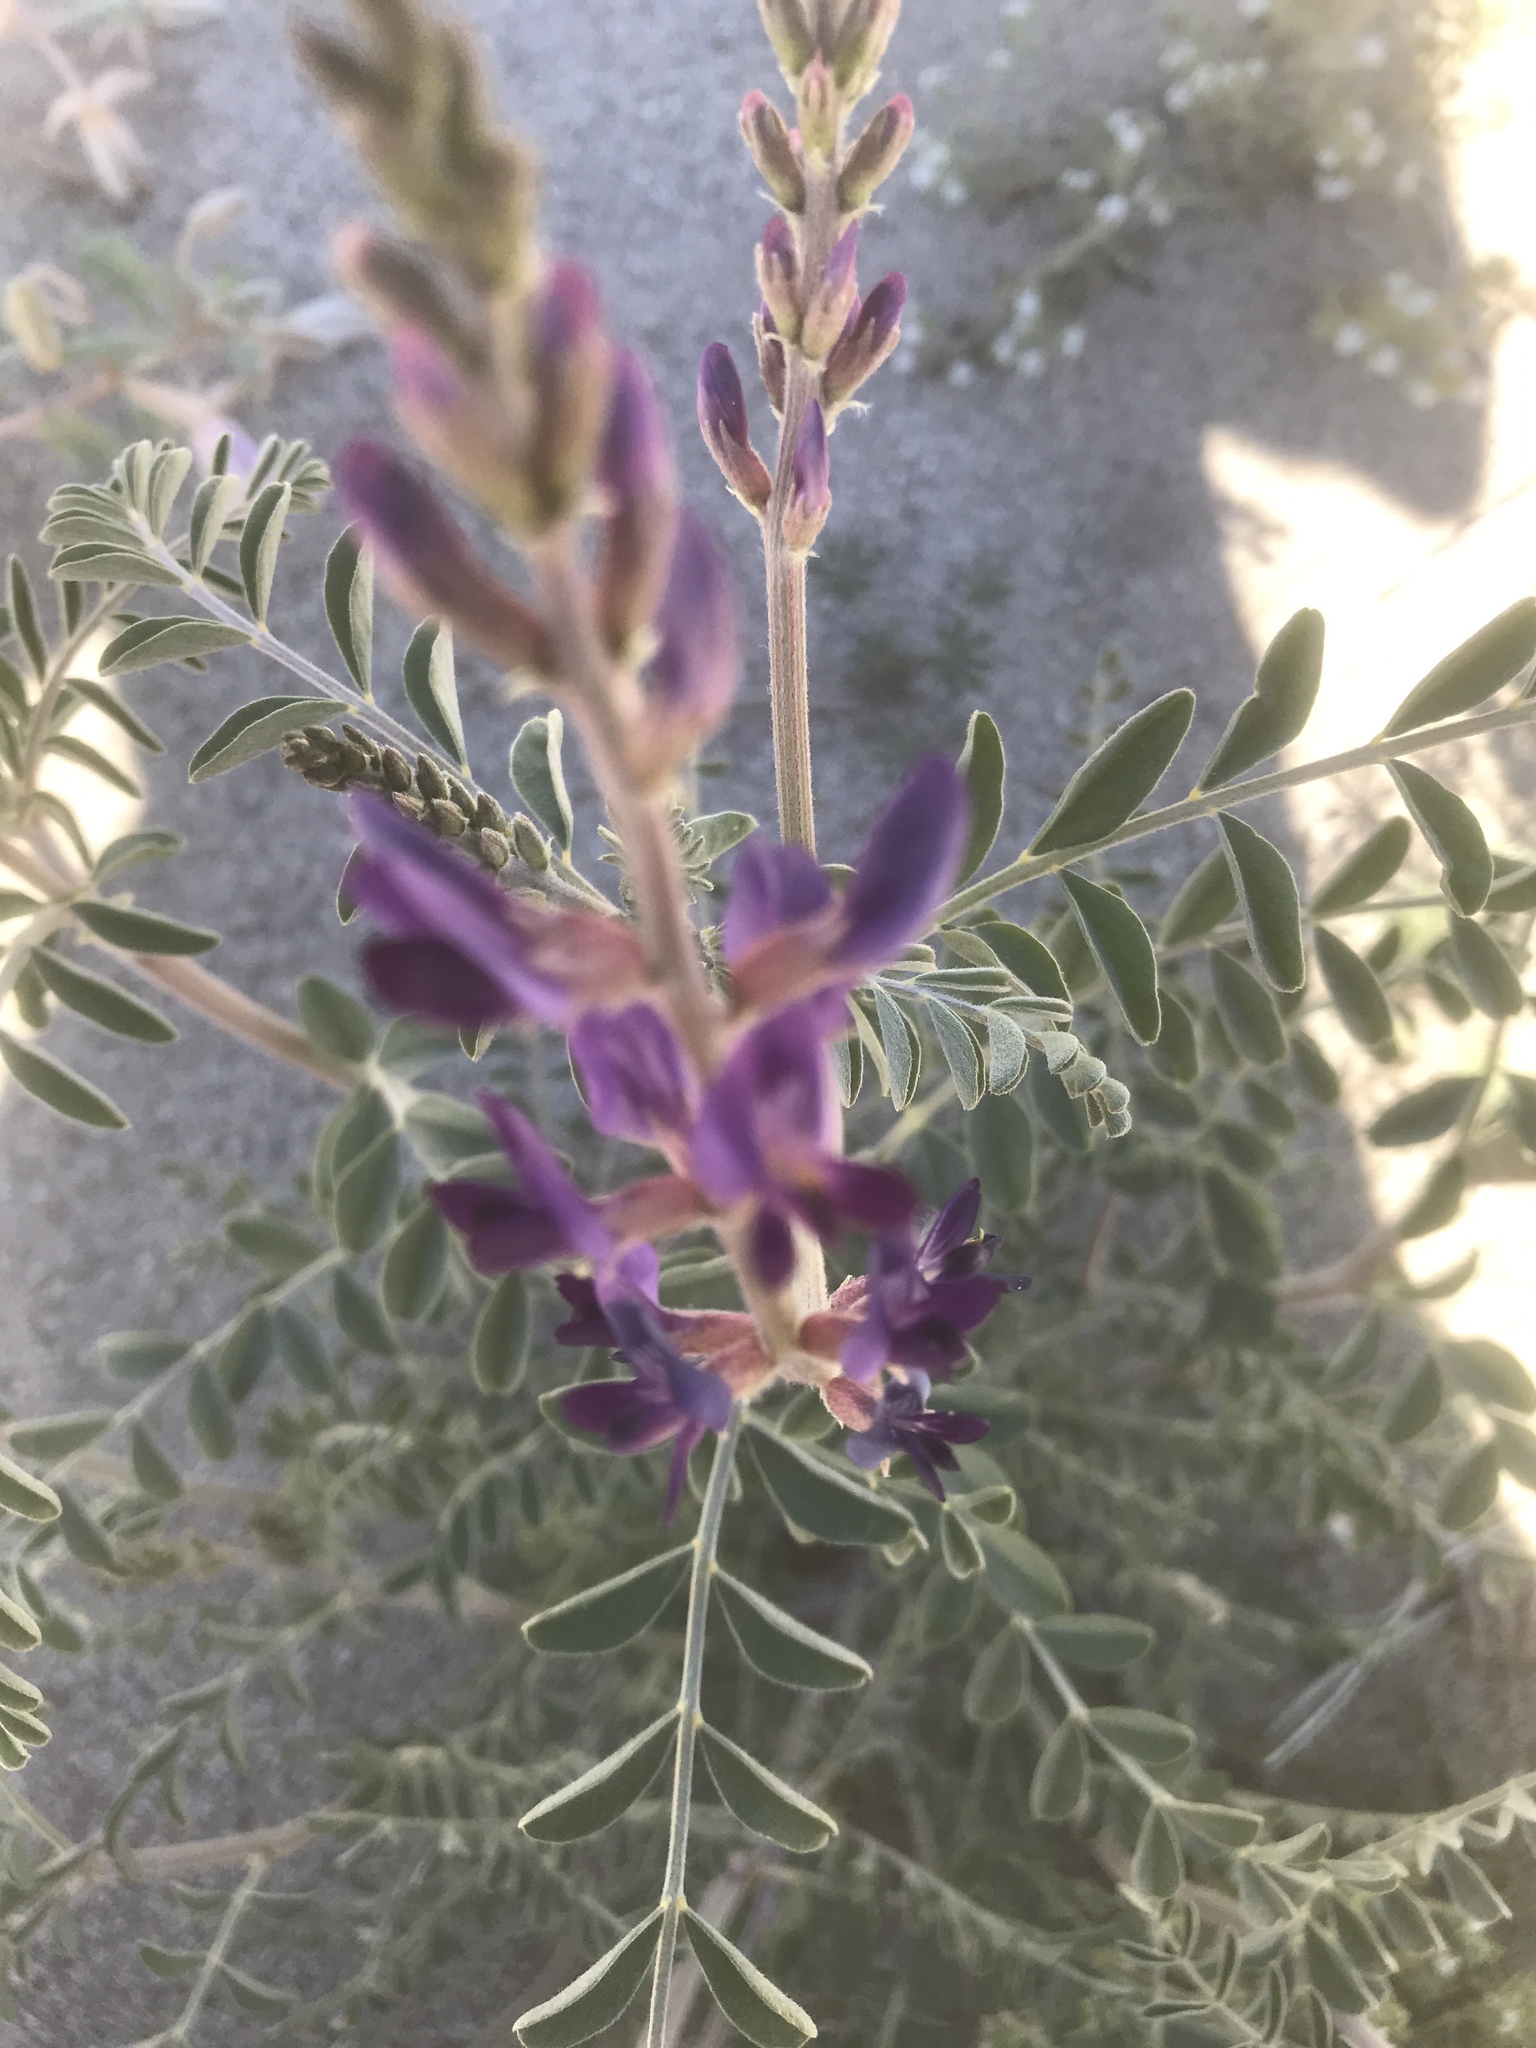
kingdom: Plantae
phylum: Tracheophyta
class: Magnoliopsida
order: Fabales
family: Fabaceae
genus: Astragalus
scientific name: Astragalus lentiginosus
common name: Freckled milkvetch
